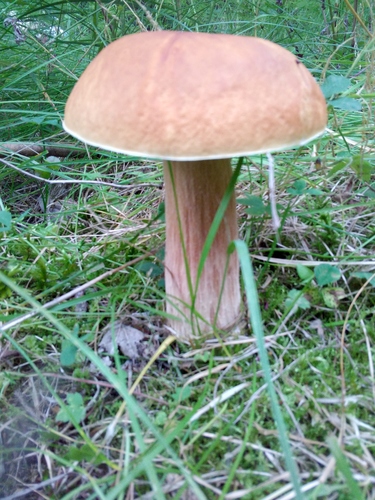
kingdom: Fungi
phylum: Basidiomycota
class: Agaricomycetes
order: Boletales
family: Boletaceae
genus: Boletus
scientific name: Boletus edulis
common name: Cep
